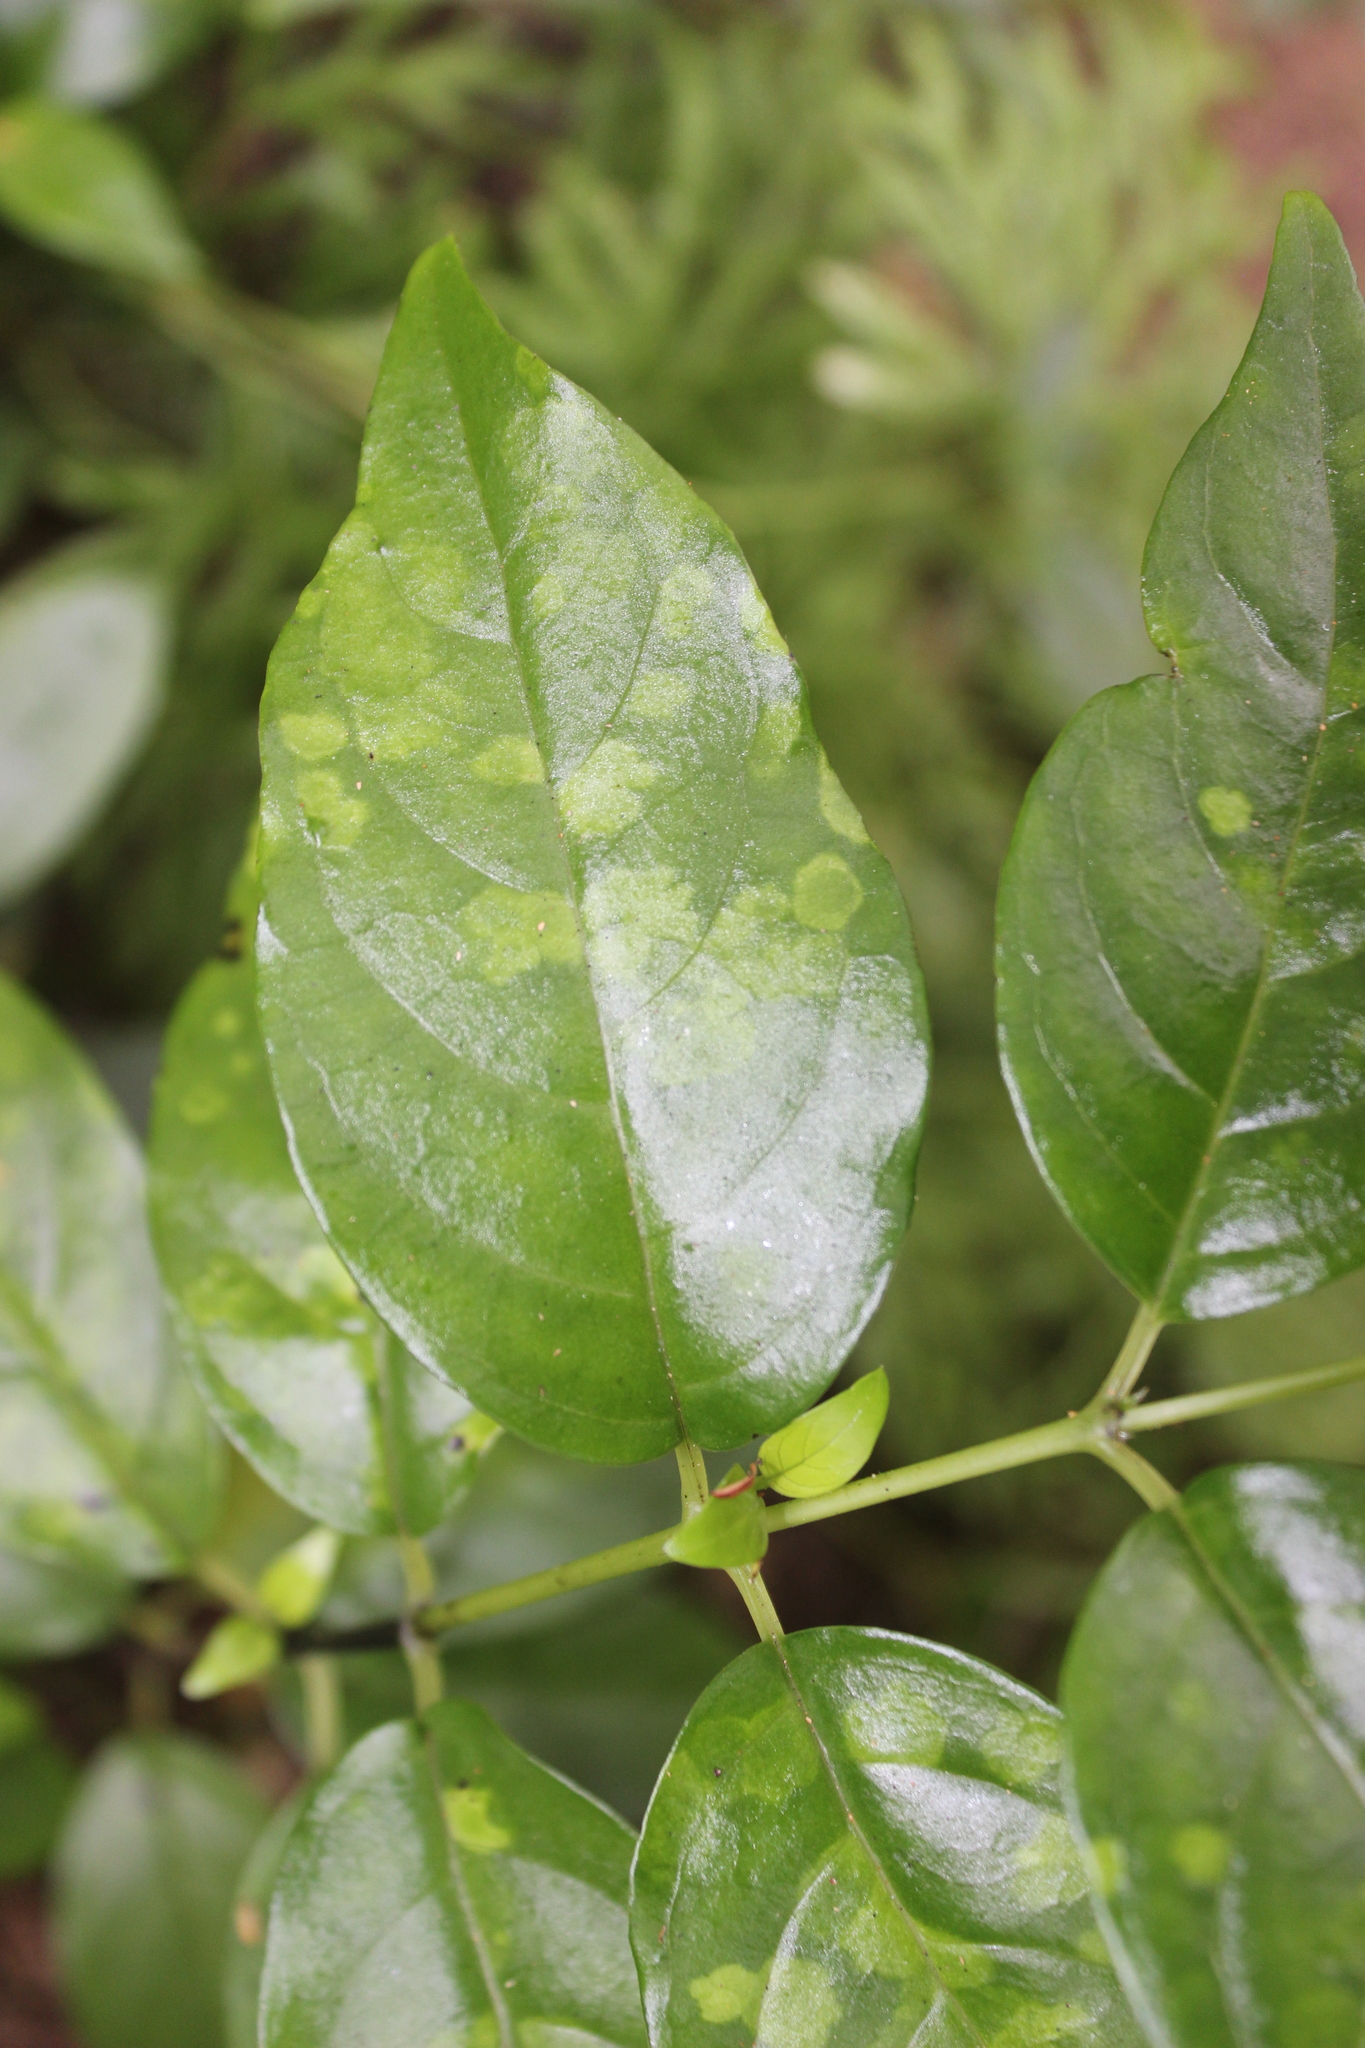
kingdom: Plantae
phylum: Tracheophyta
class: Magnoliopsida
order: Gentianales
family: Loganiaceae
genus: Geniostoma
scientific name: Geniostoma ligustrifolium
